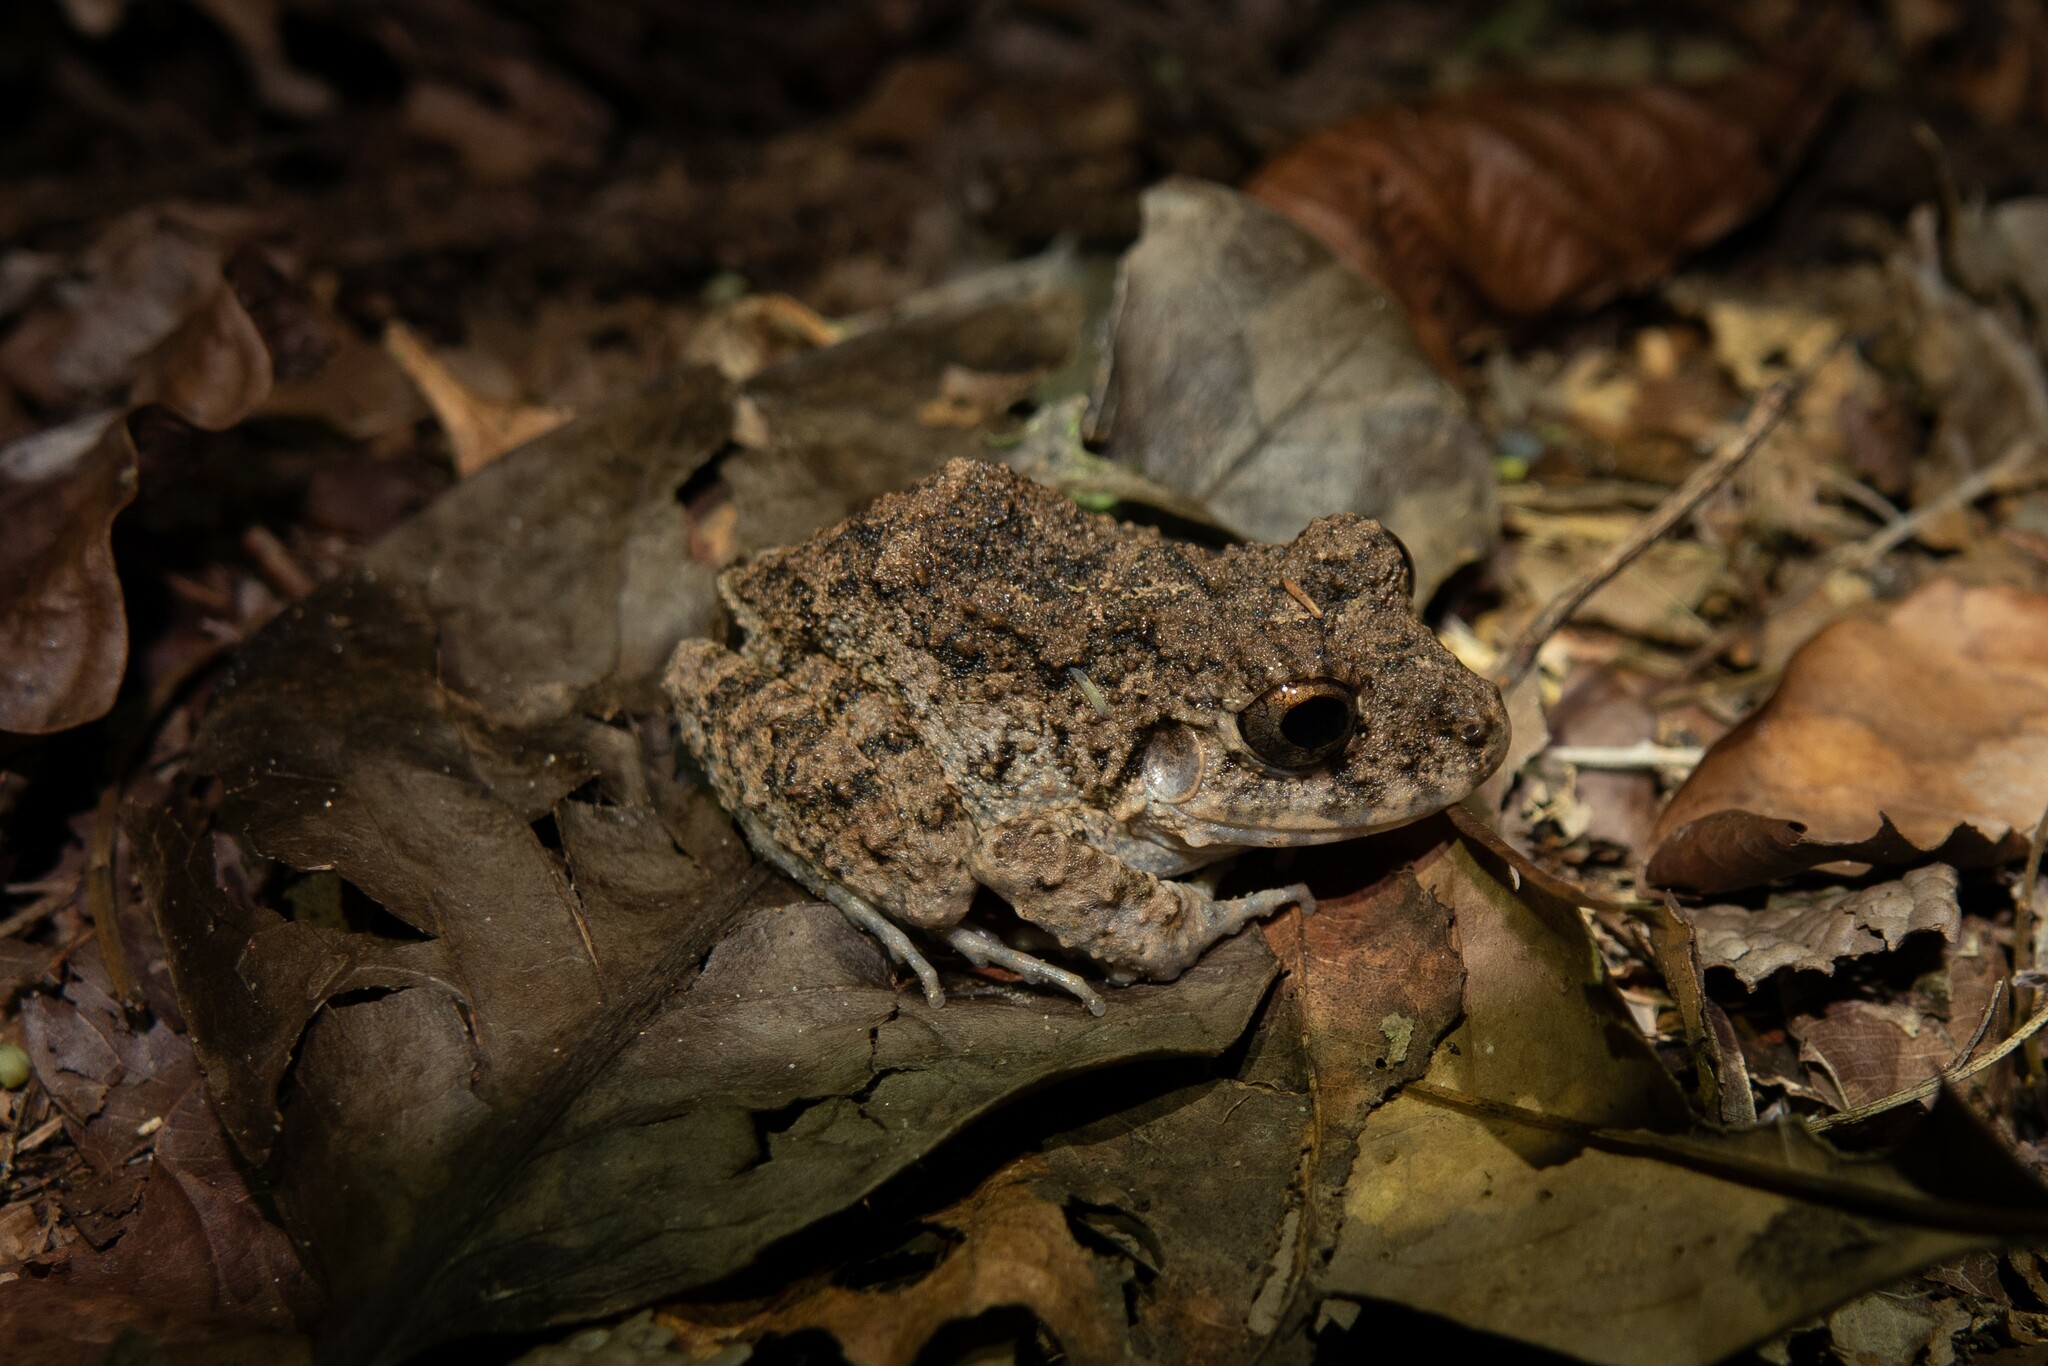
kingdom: Animalia
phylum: Chordata
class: Amphibia
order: Anura
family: Craugastoridae
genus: Oreobates
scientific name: Oreobates quixensis
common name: Common big-headed frog
